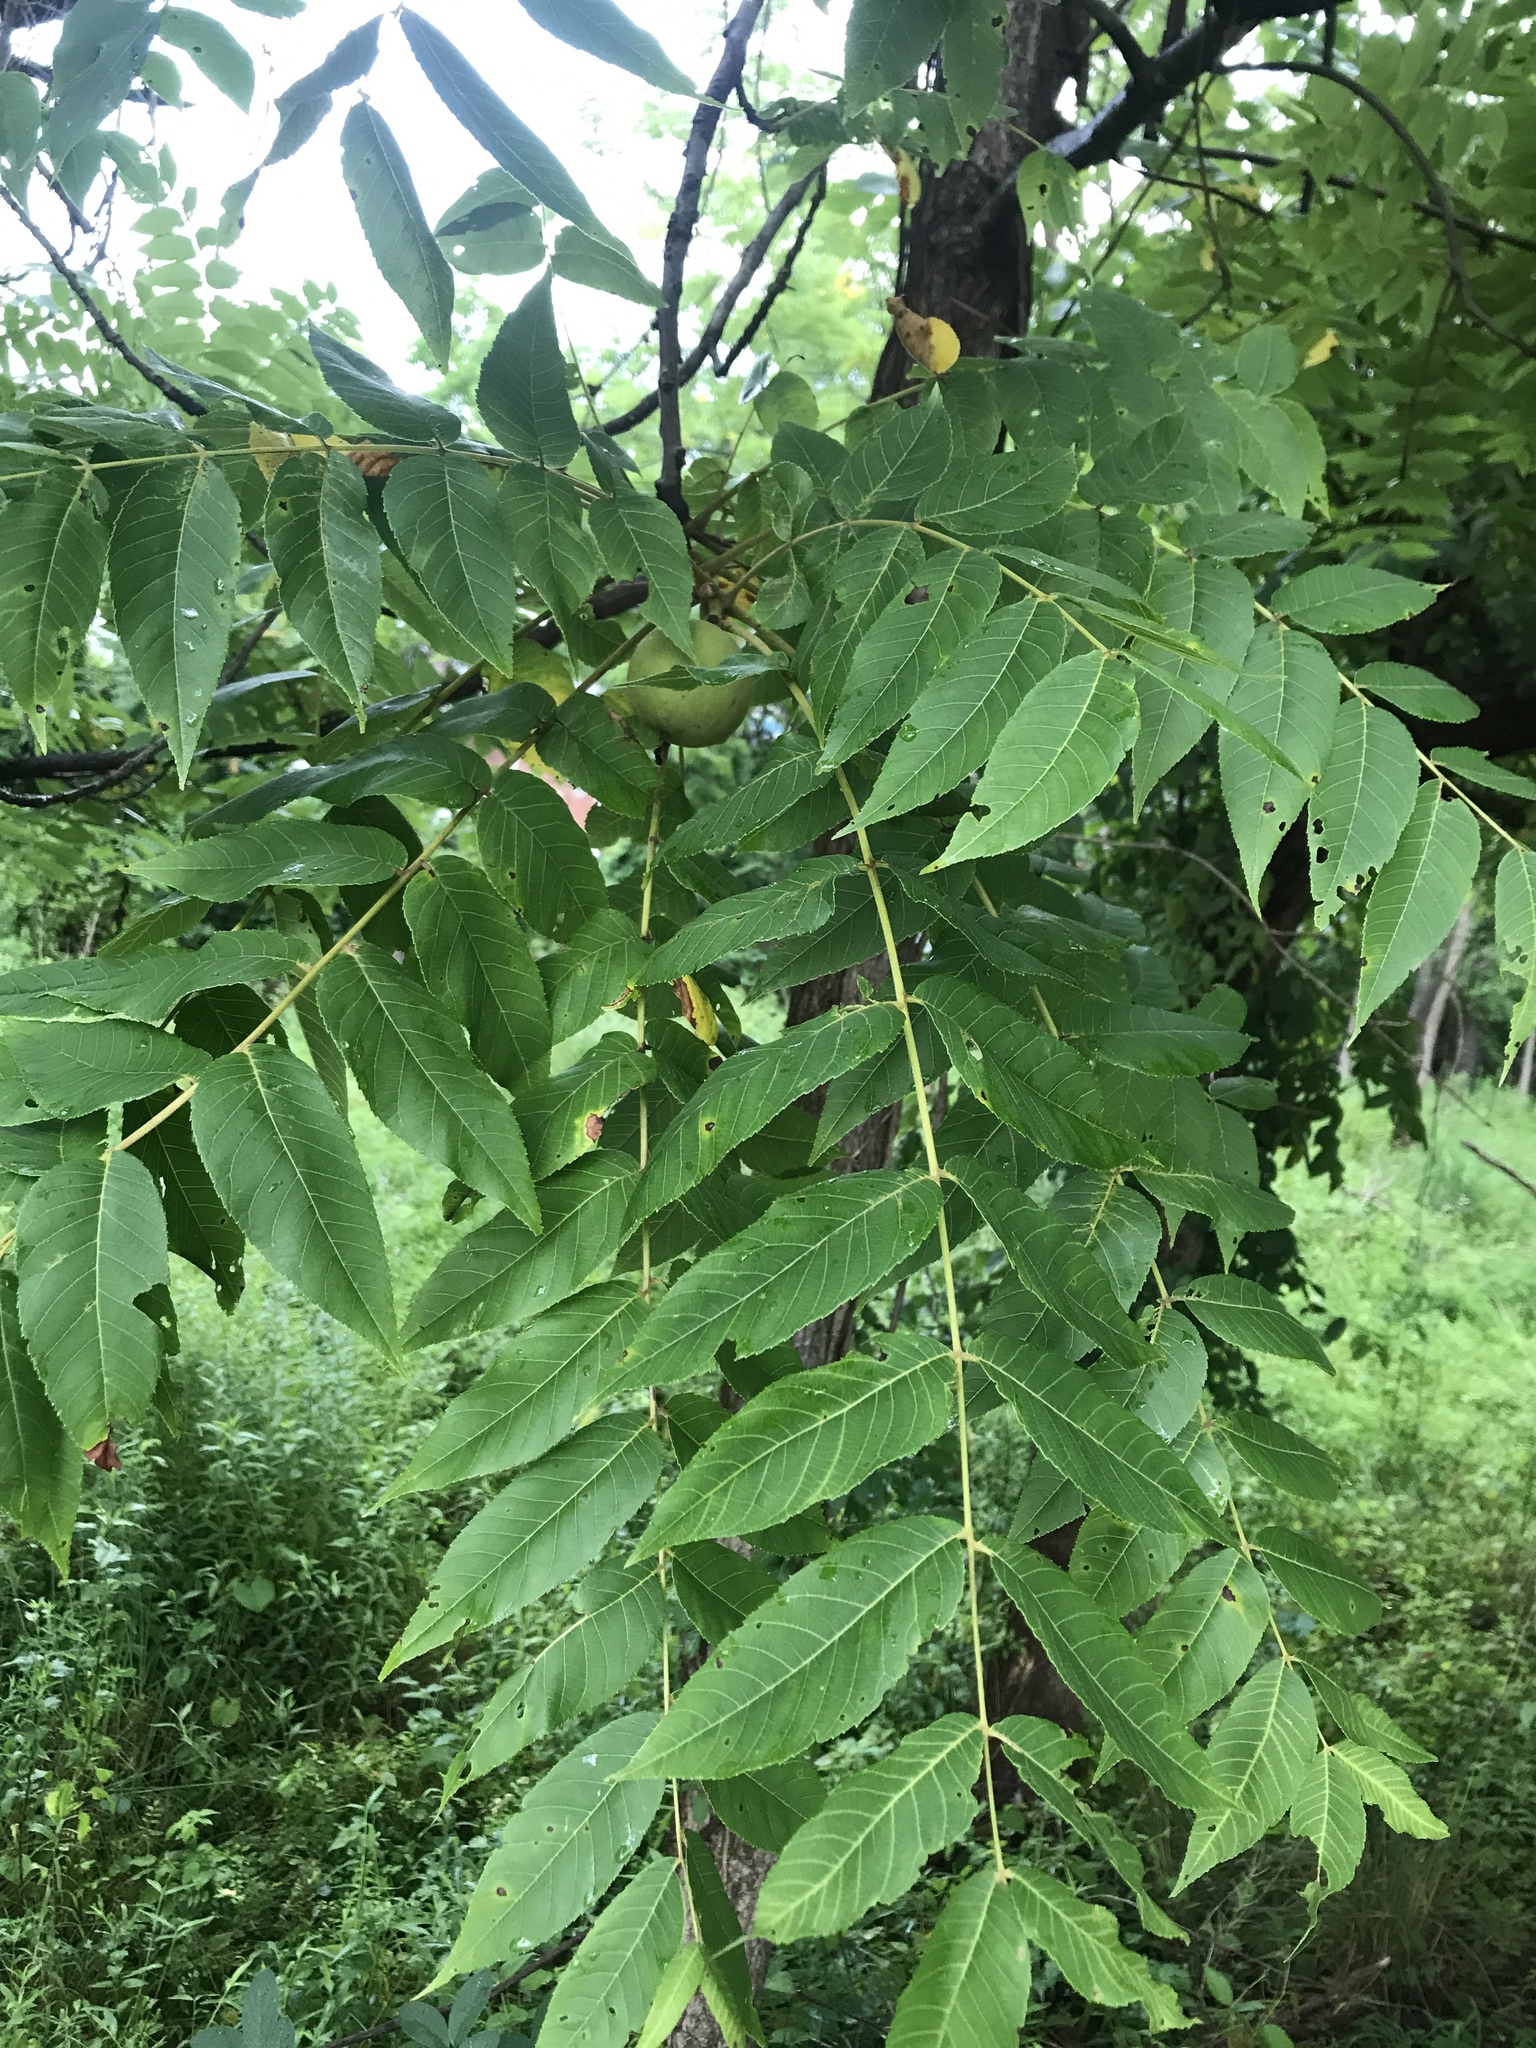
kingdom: Plantae
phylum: Tracheophyta
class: Magnoliopsida
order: Fagales
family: Juglandaceae
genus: Juglans
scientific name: Juglans nigra
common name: Black walnut
